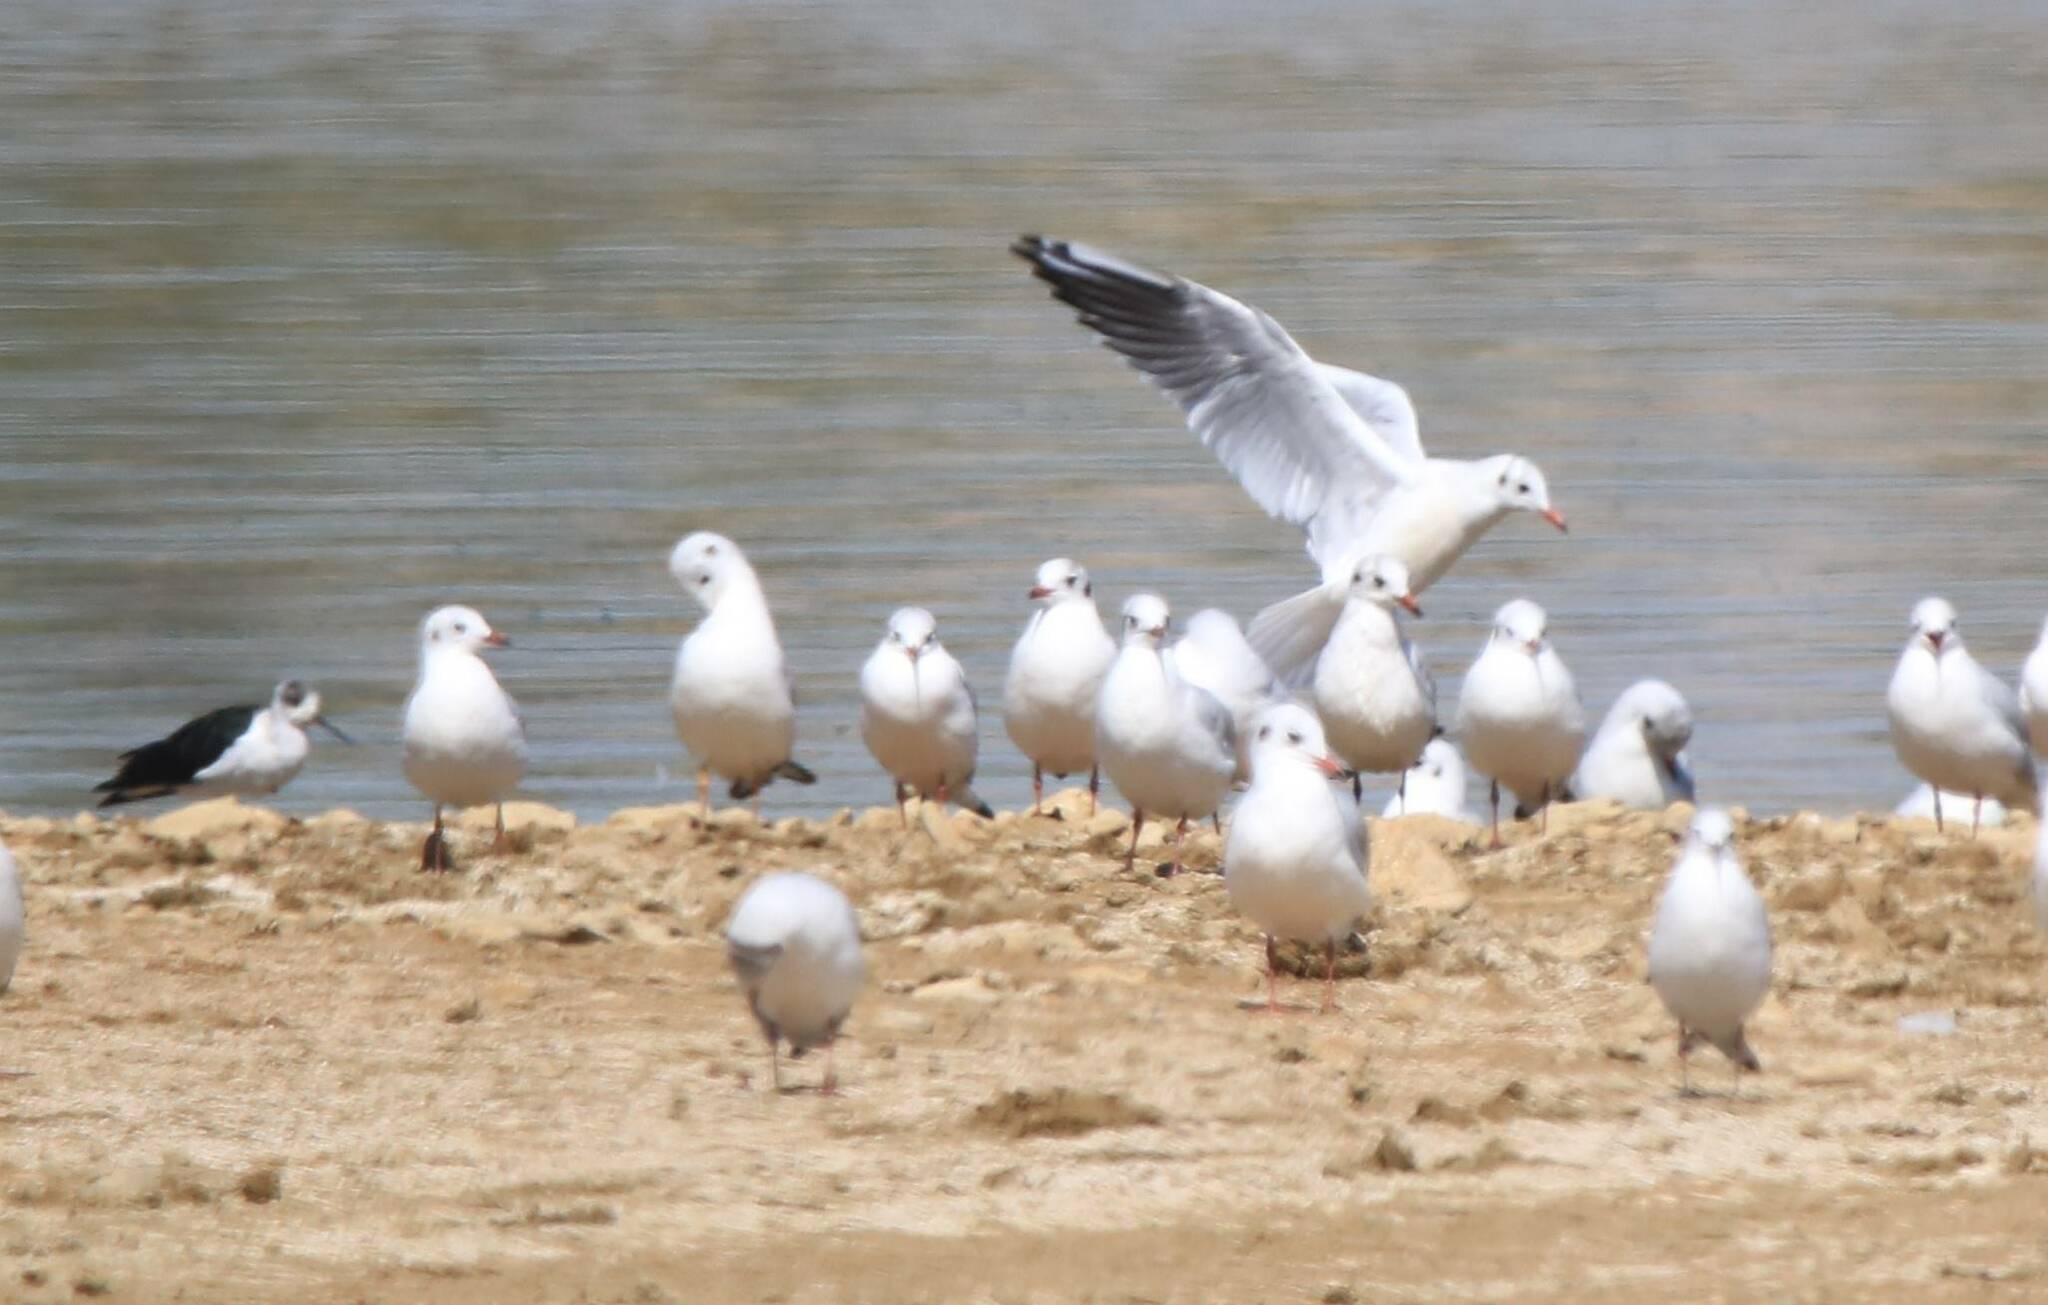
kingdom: Animalia
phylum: Chordata
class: Aves
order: Charadriiformes
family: Laridae
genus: Chroicocephalus
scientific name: Chroicocephalus ridibundus
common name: Black-headed gull
